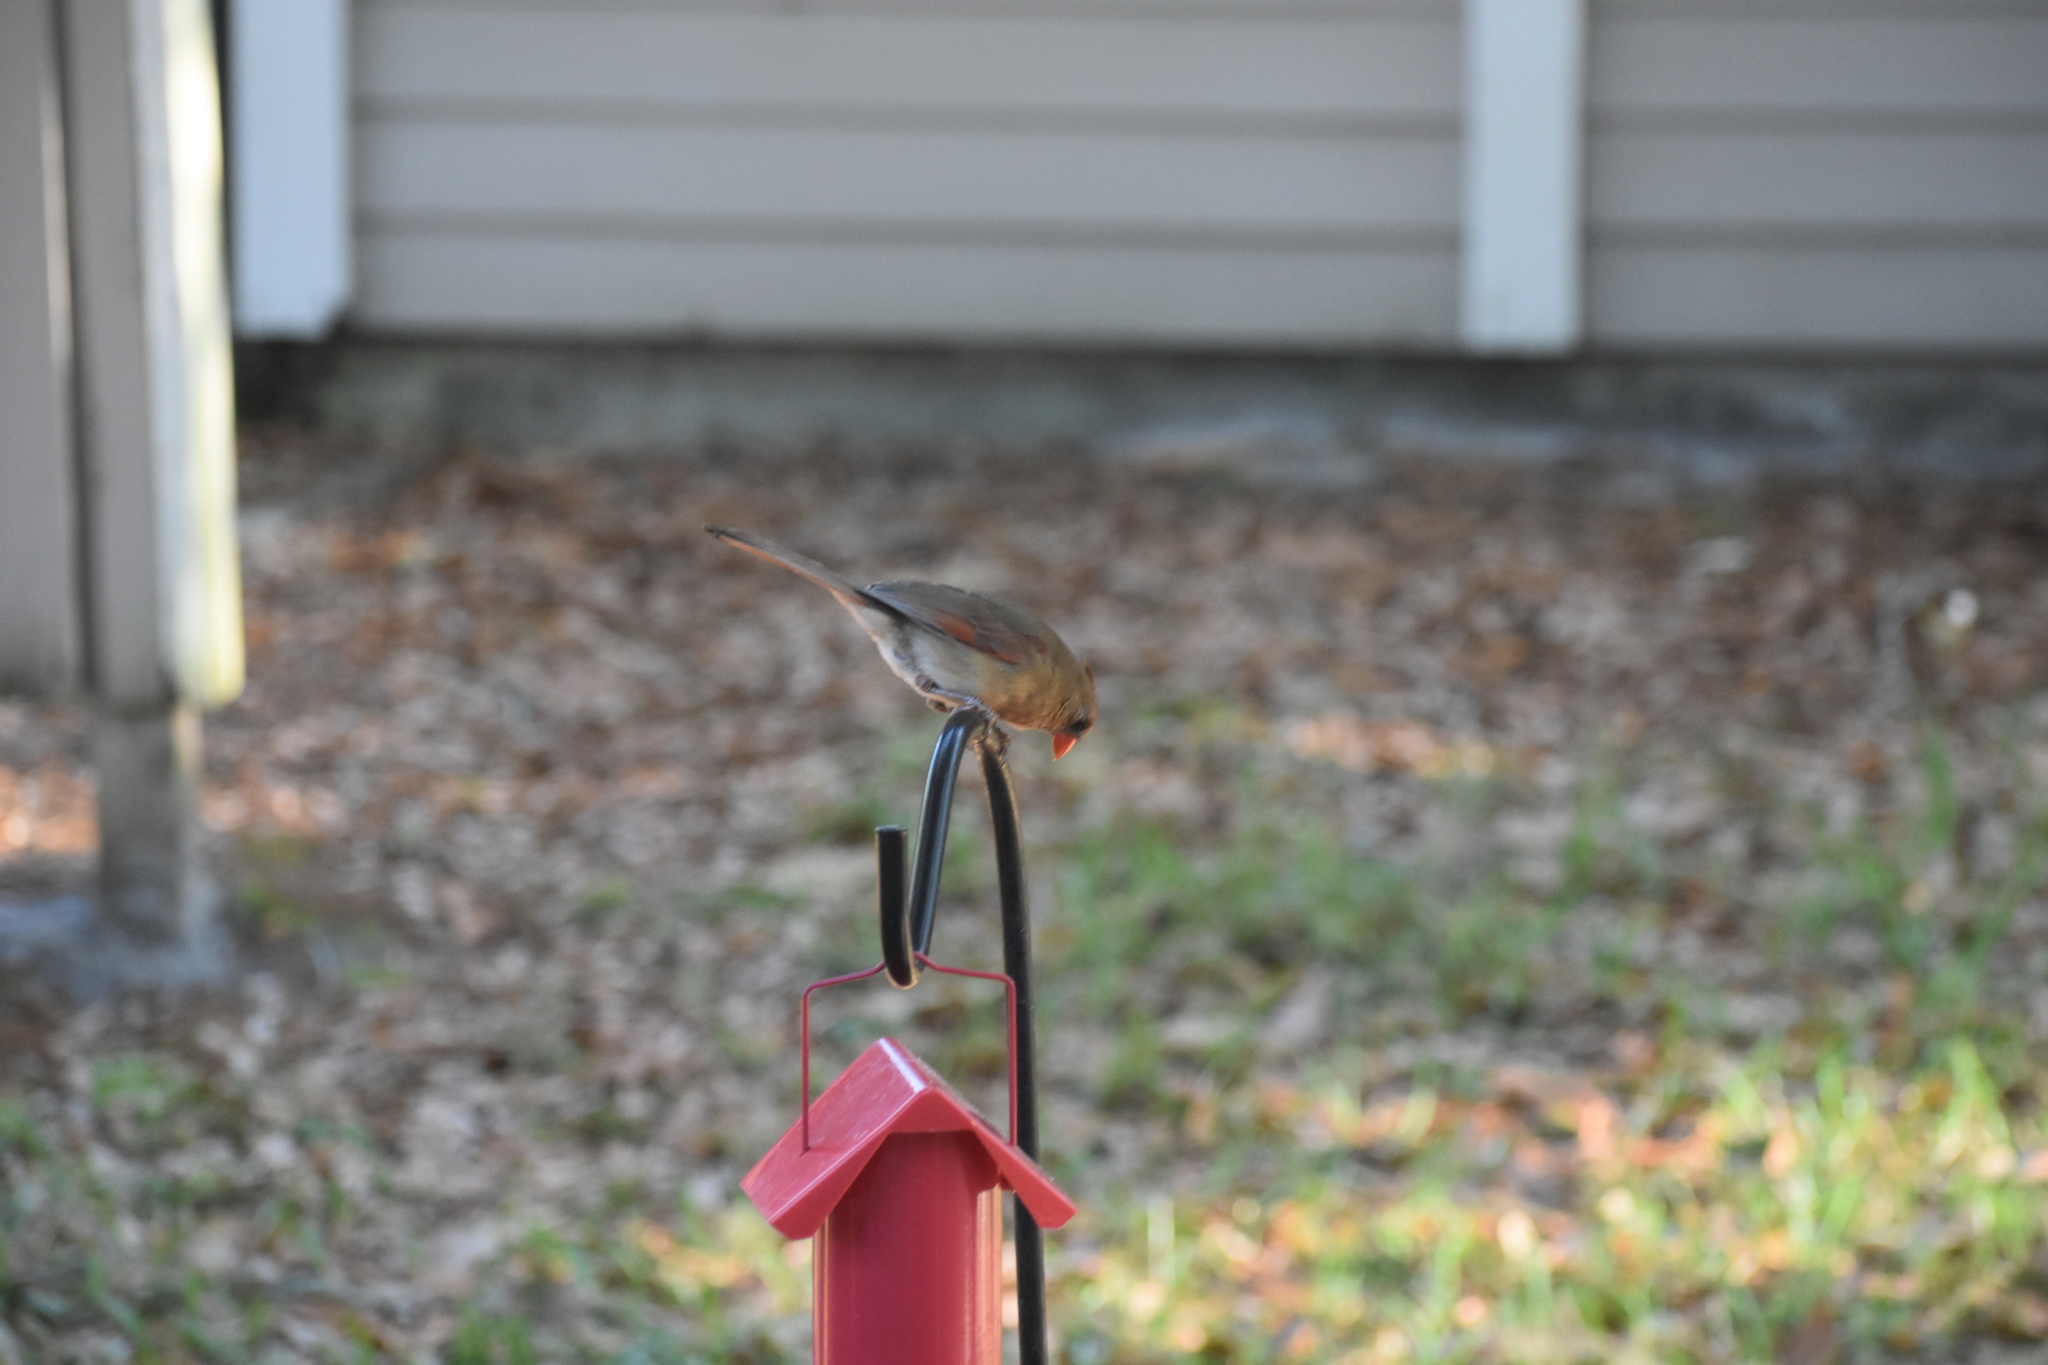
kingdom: Animalia
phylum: Chordata
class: Aves
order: Passeriformes
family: Cardinalidae
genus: Cardinalis
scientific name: Cardinalis cardinalis
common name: Northern cardinal
